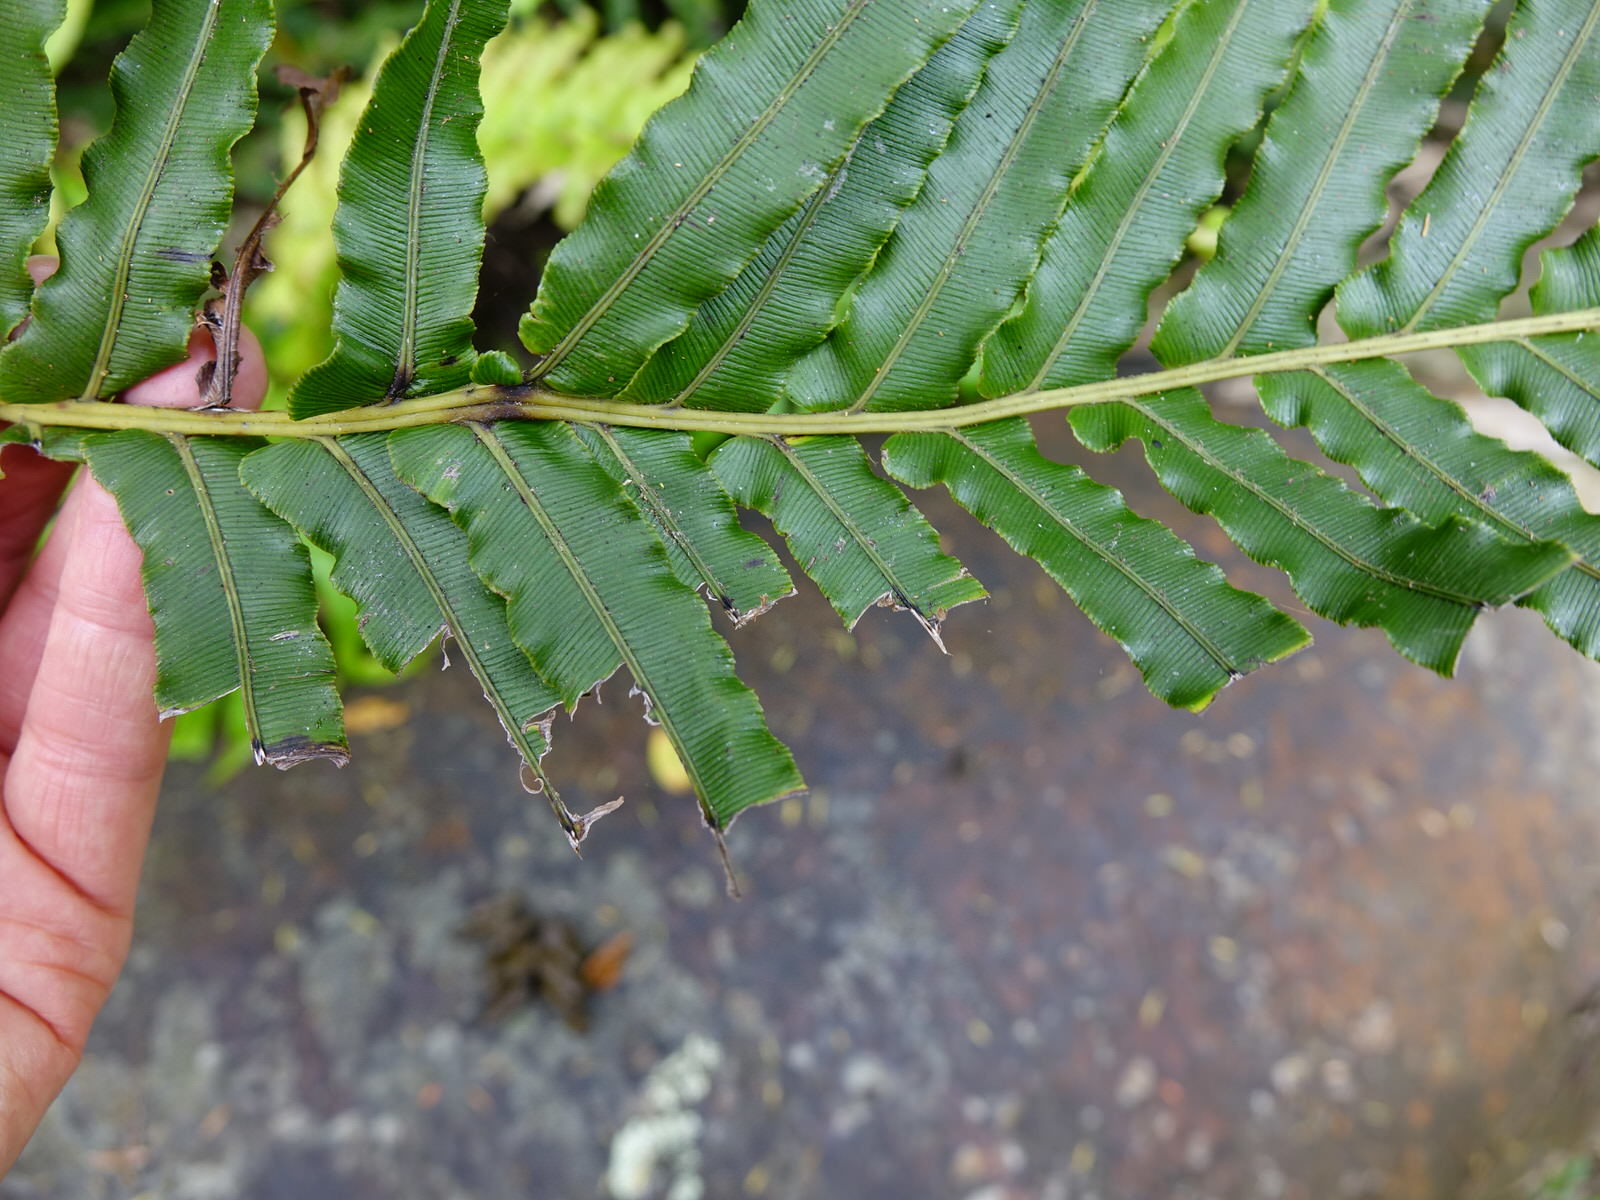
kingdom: Animalia
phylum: Chordata
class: Mammalia
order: Diprotodontia
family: Phalangeridae
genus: Trichosurus
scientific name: Trichosurus vulpecula
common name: Common brushtail
